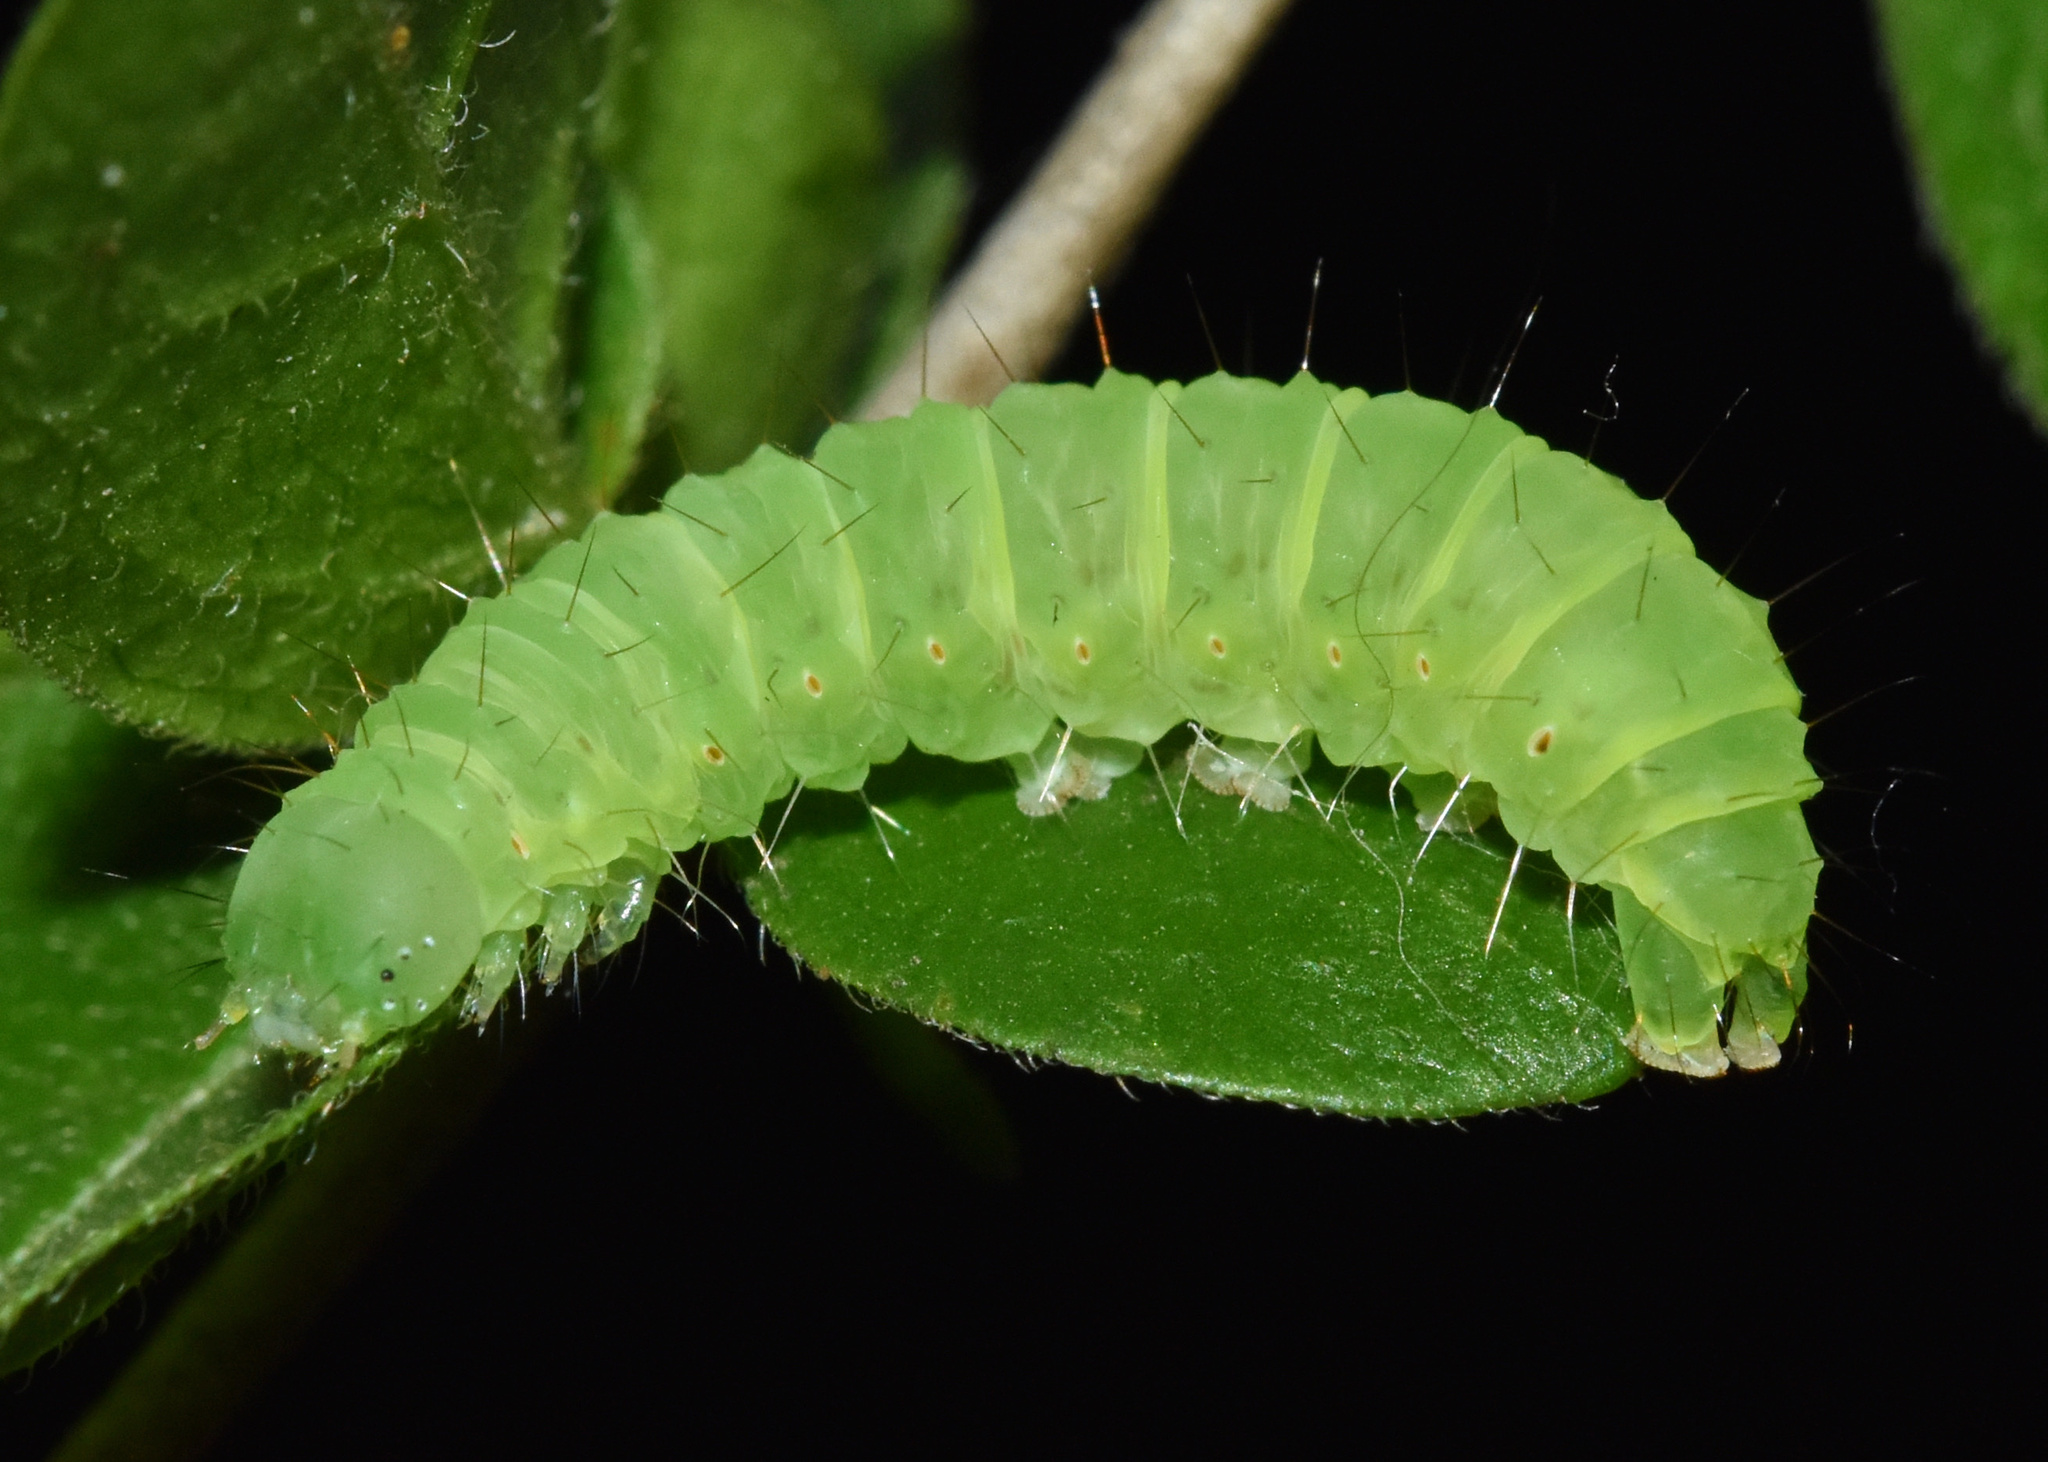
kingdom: Animalia
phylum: Arthropoda
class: Insecta
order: Lepidoptera
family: Erebidae
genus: Gracilodes
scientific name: Gracilodes caffra
